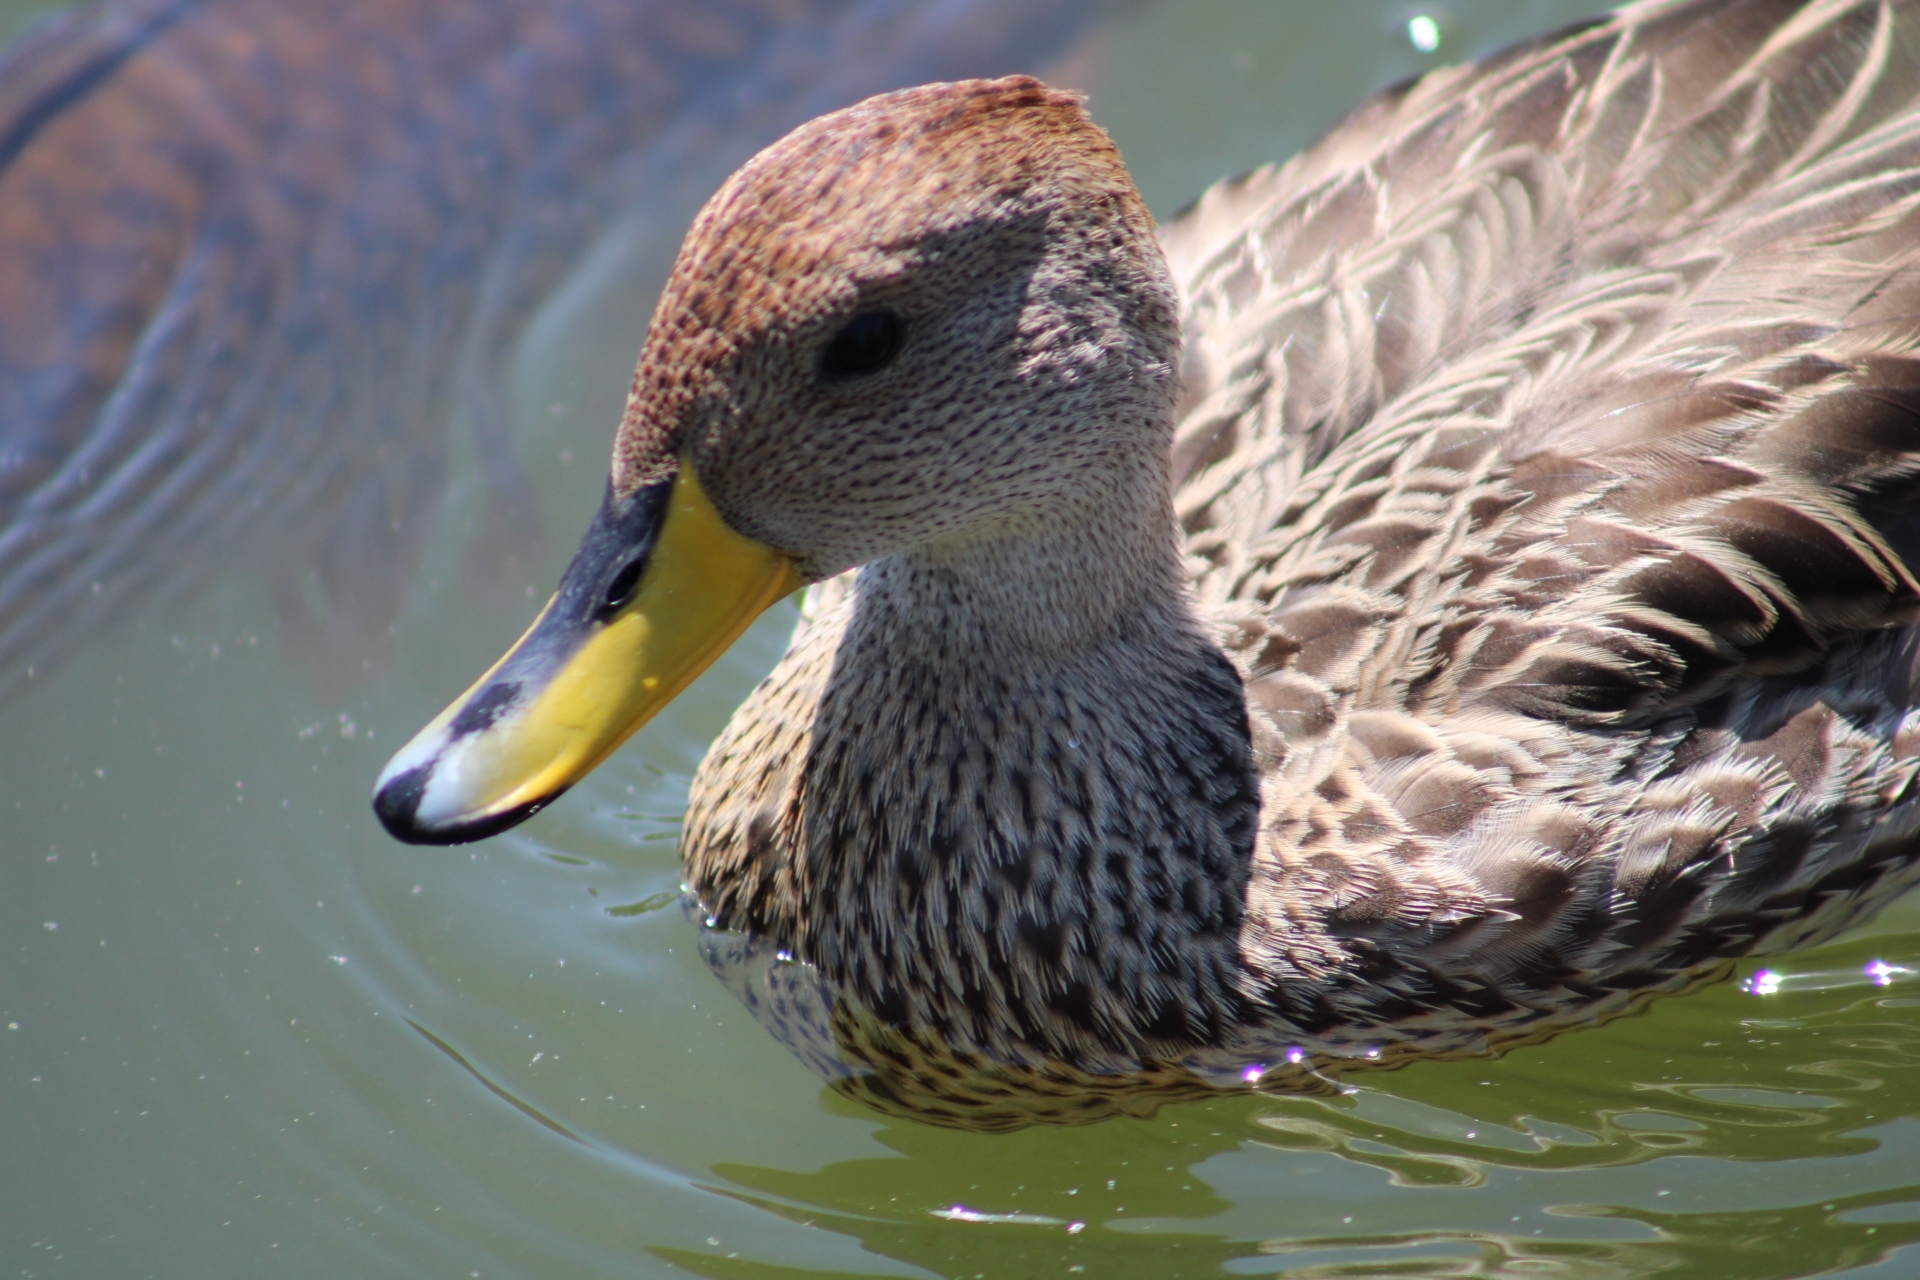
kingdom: Animalia
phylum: Chordata
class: Aves
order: Anseriformes
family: Anatidae
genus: Anas
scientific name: Anas georgica
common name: Yellow-billed pintail
